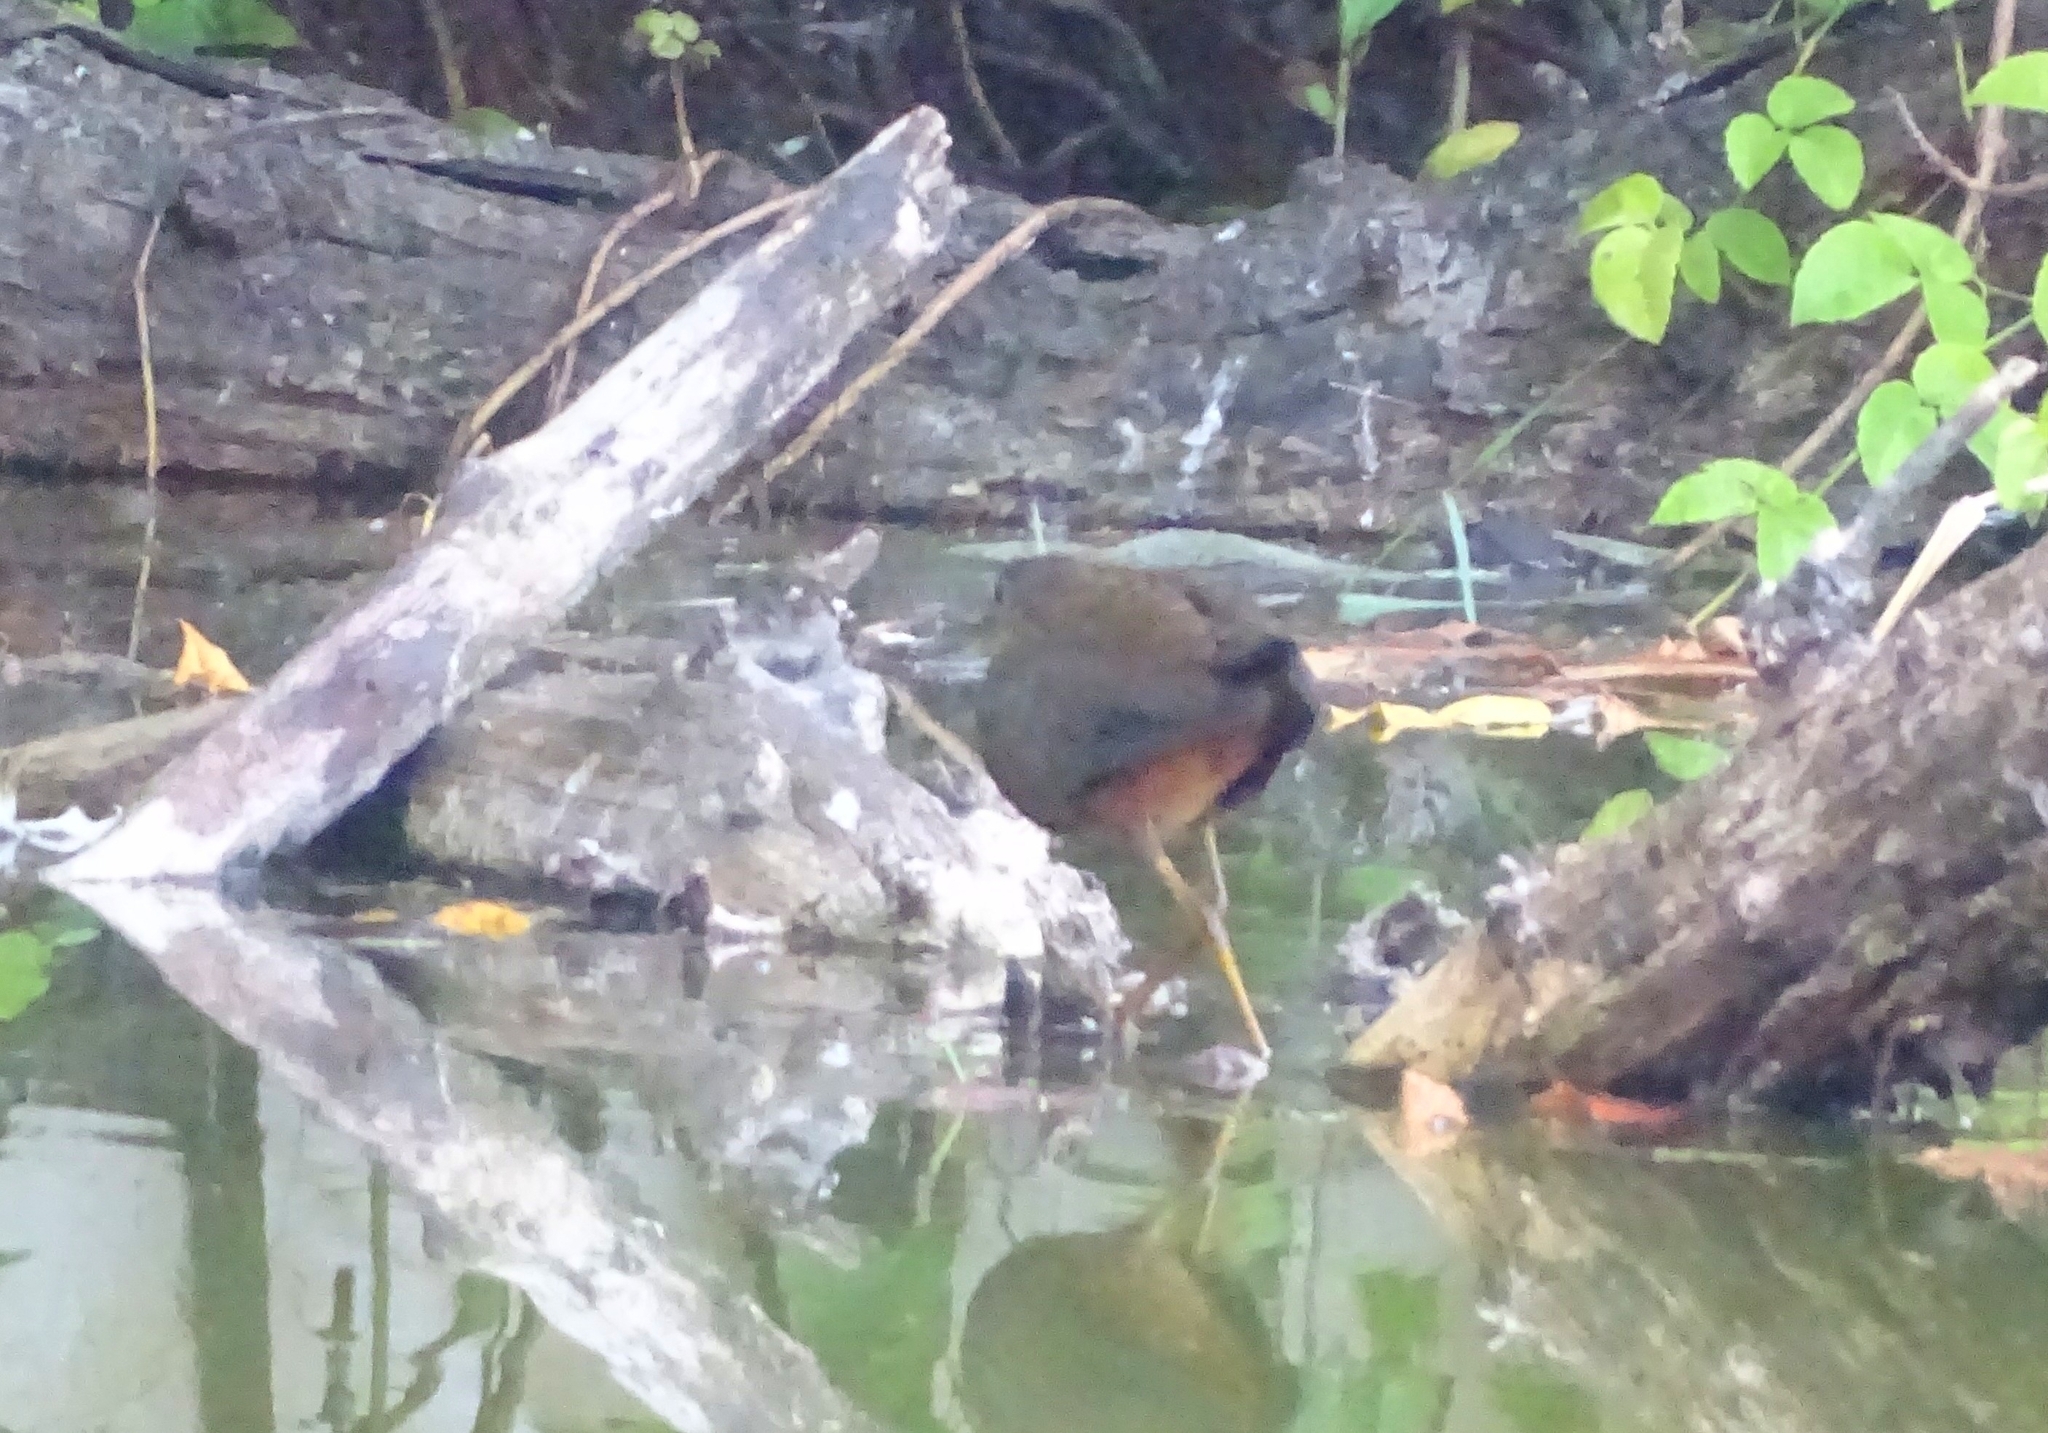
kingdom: Animalia
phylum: Chordata
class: Aves
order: Gruiformes
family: Rallidae
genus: Amaurornis
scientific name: Amaurornis phoenicurus
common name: White-breasted waterhen
